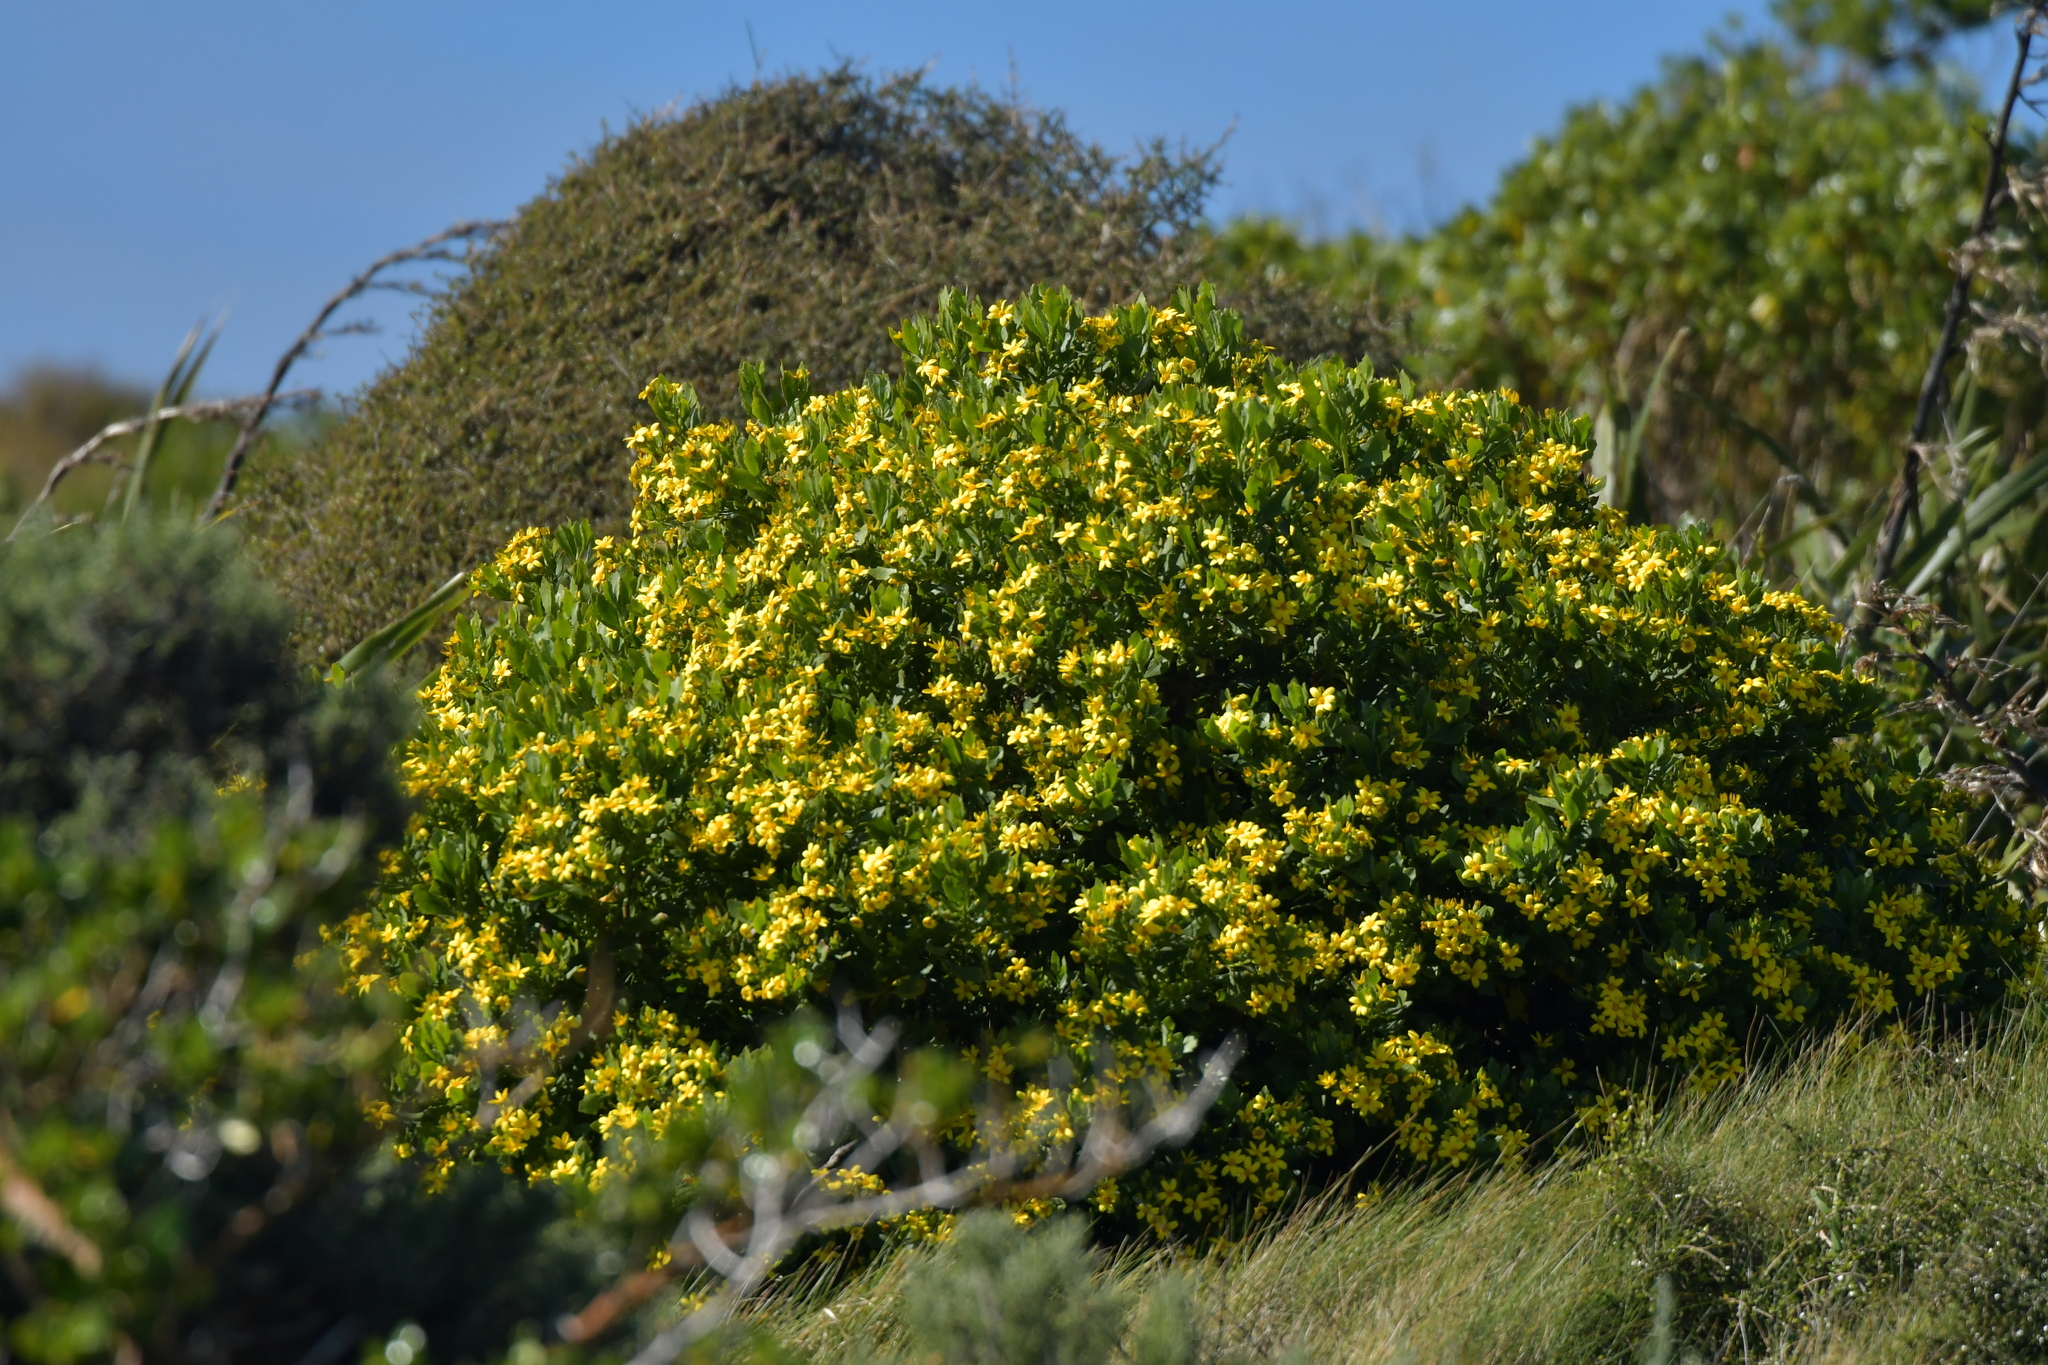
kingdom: Plantae
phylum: Tracheophyta
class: Magnoliopsida
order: Asterales
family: Asteraceae
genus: Osteospermum
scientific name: Osteospermum moniliferum
